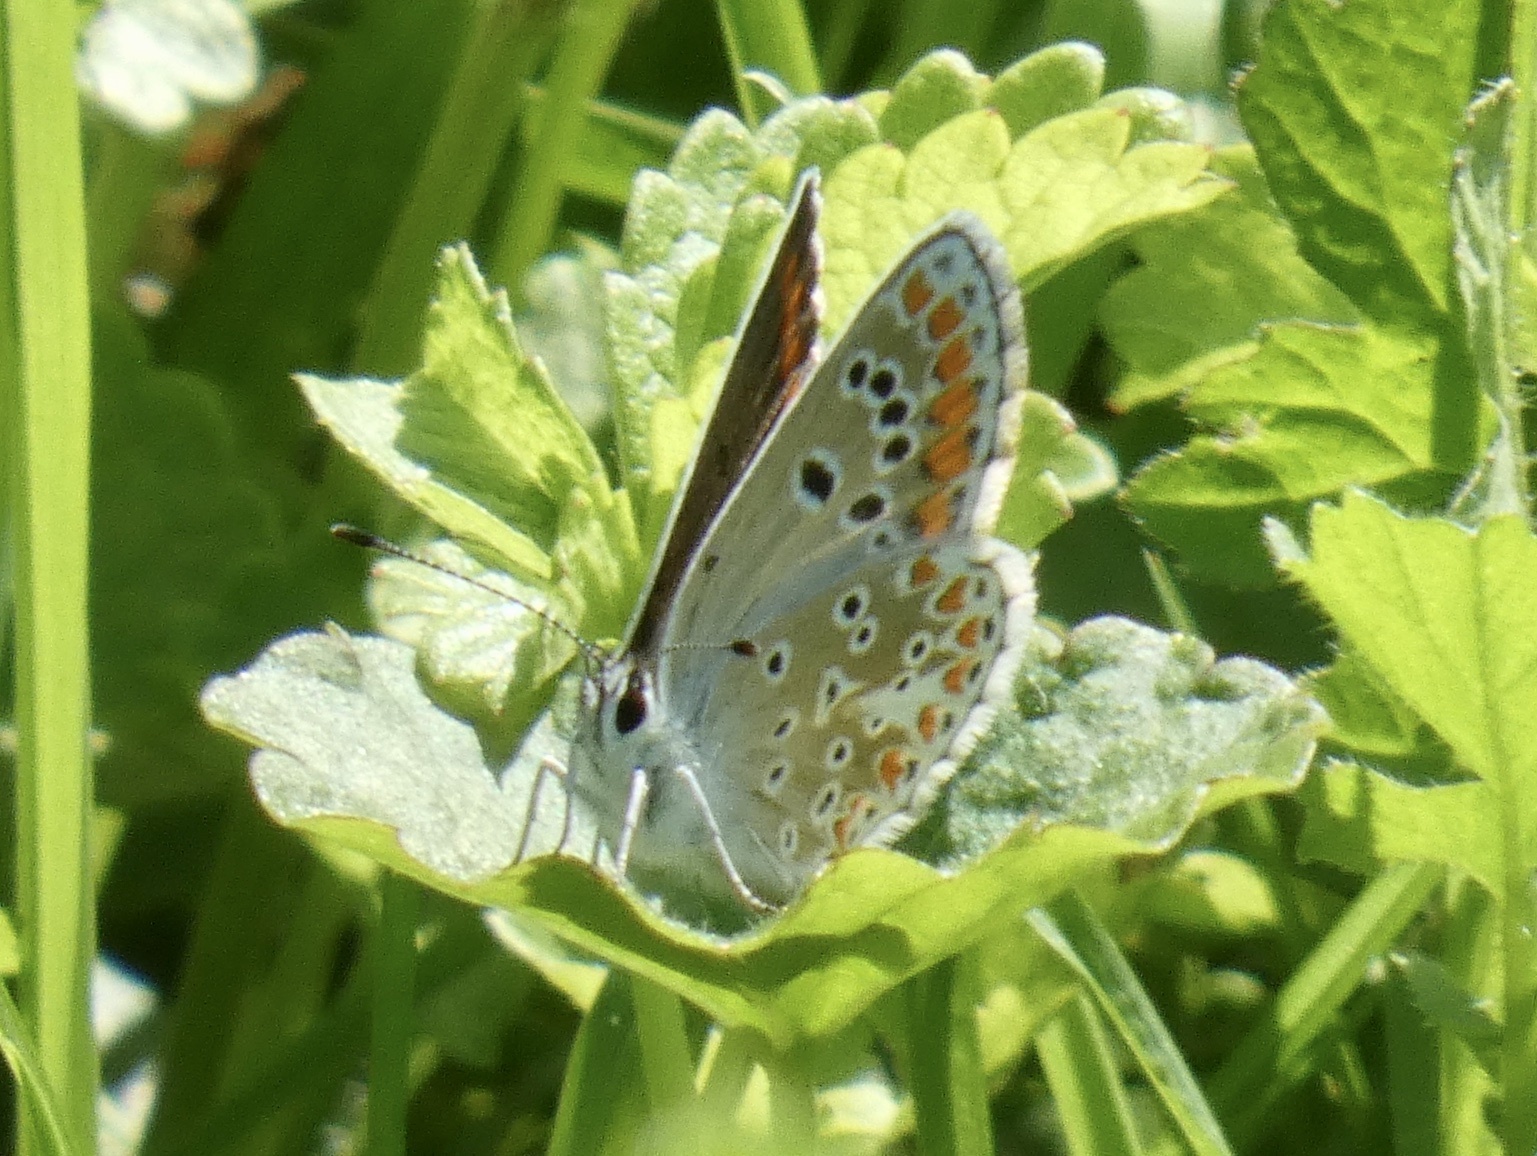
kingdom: Animalia
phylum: Arthropoda
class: Insecta
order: Lepidoptera
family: Lycaenidae
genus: Aricia
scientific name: Aricia agestis
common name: Brown argus
